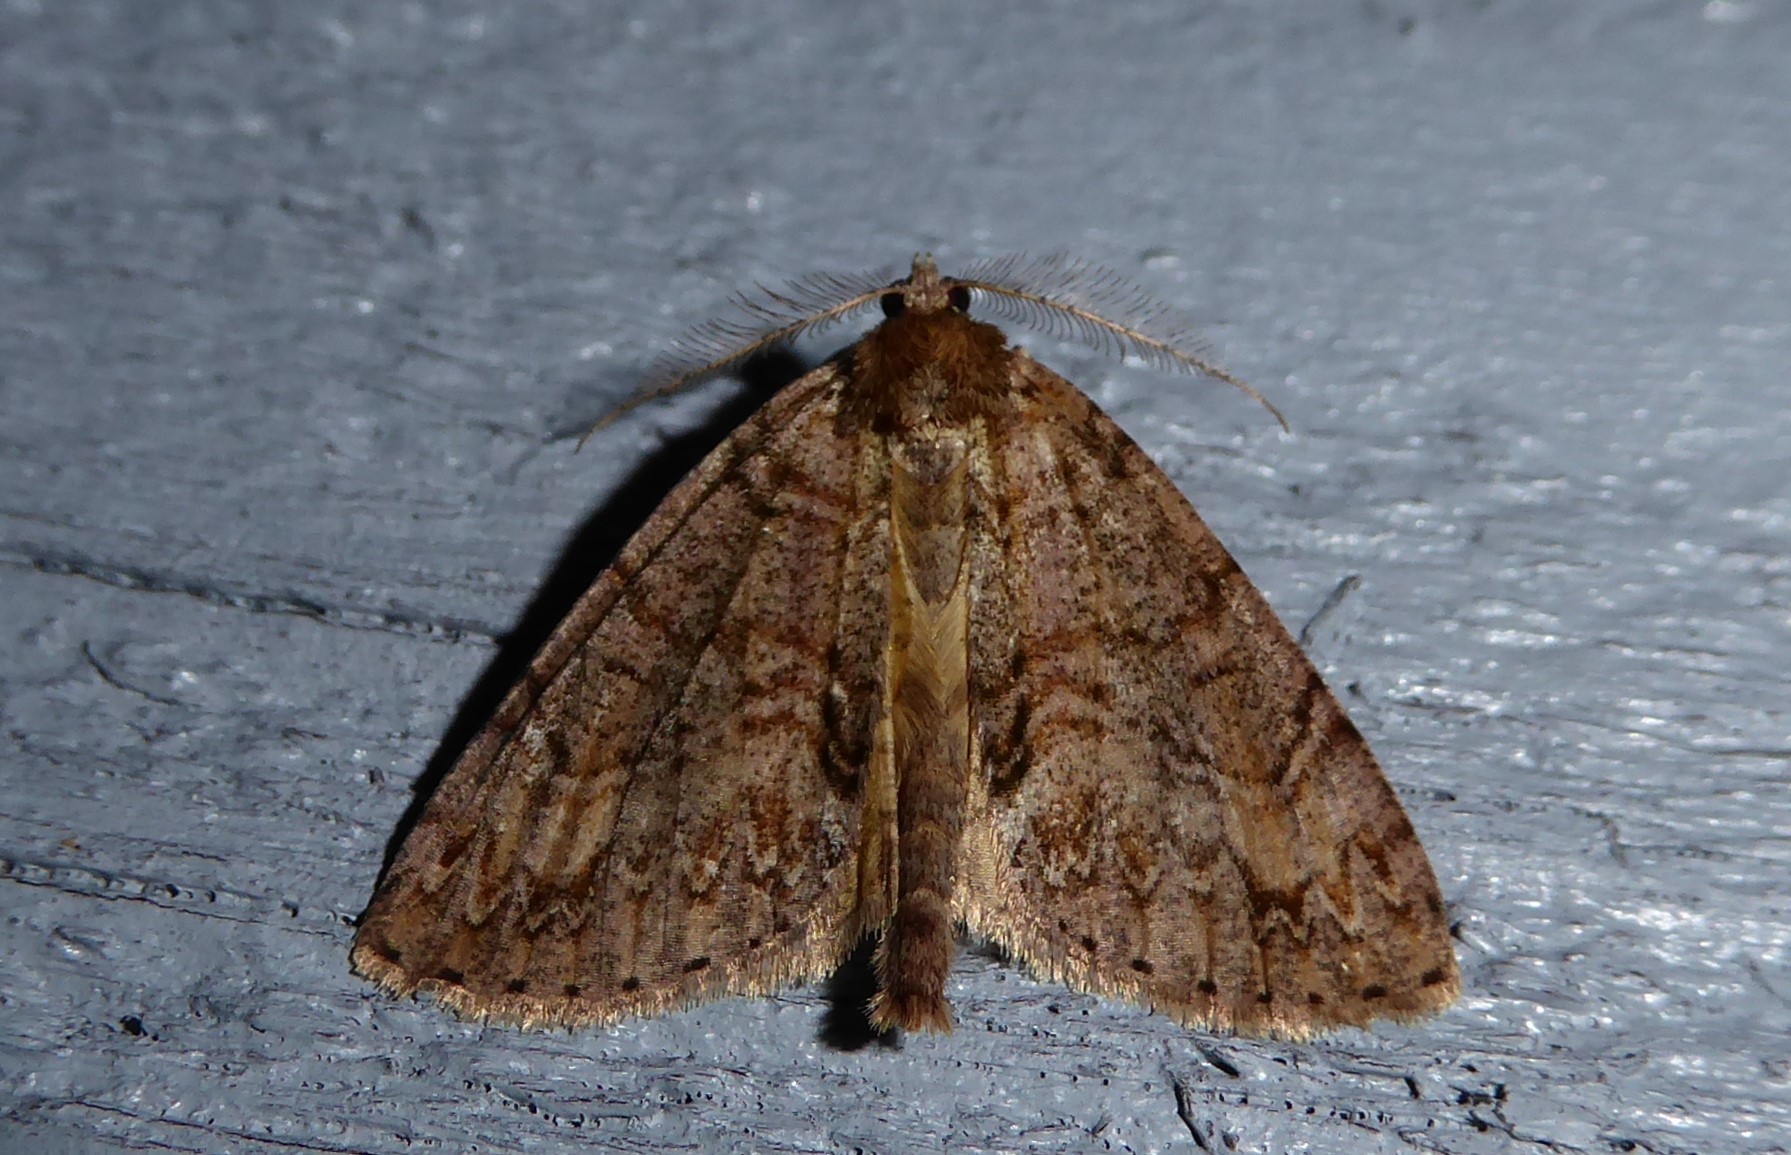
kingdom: Animalia
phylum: Arthropoda
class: Insecta
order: Lepidoptera
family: Geometridae
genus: Pseudocoremia
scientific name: Pseudocoremia suavis
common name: Common forest looper
